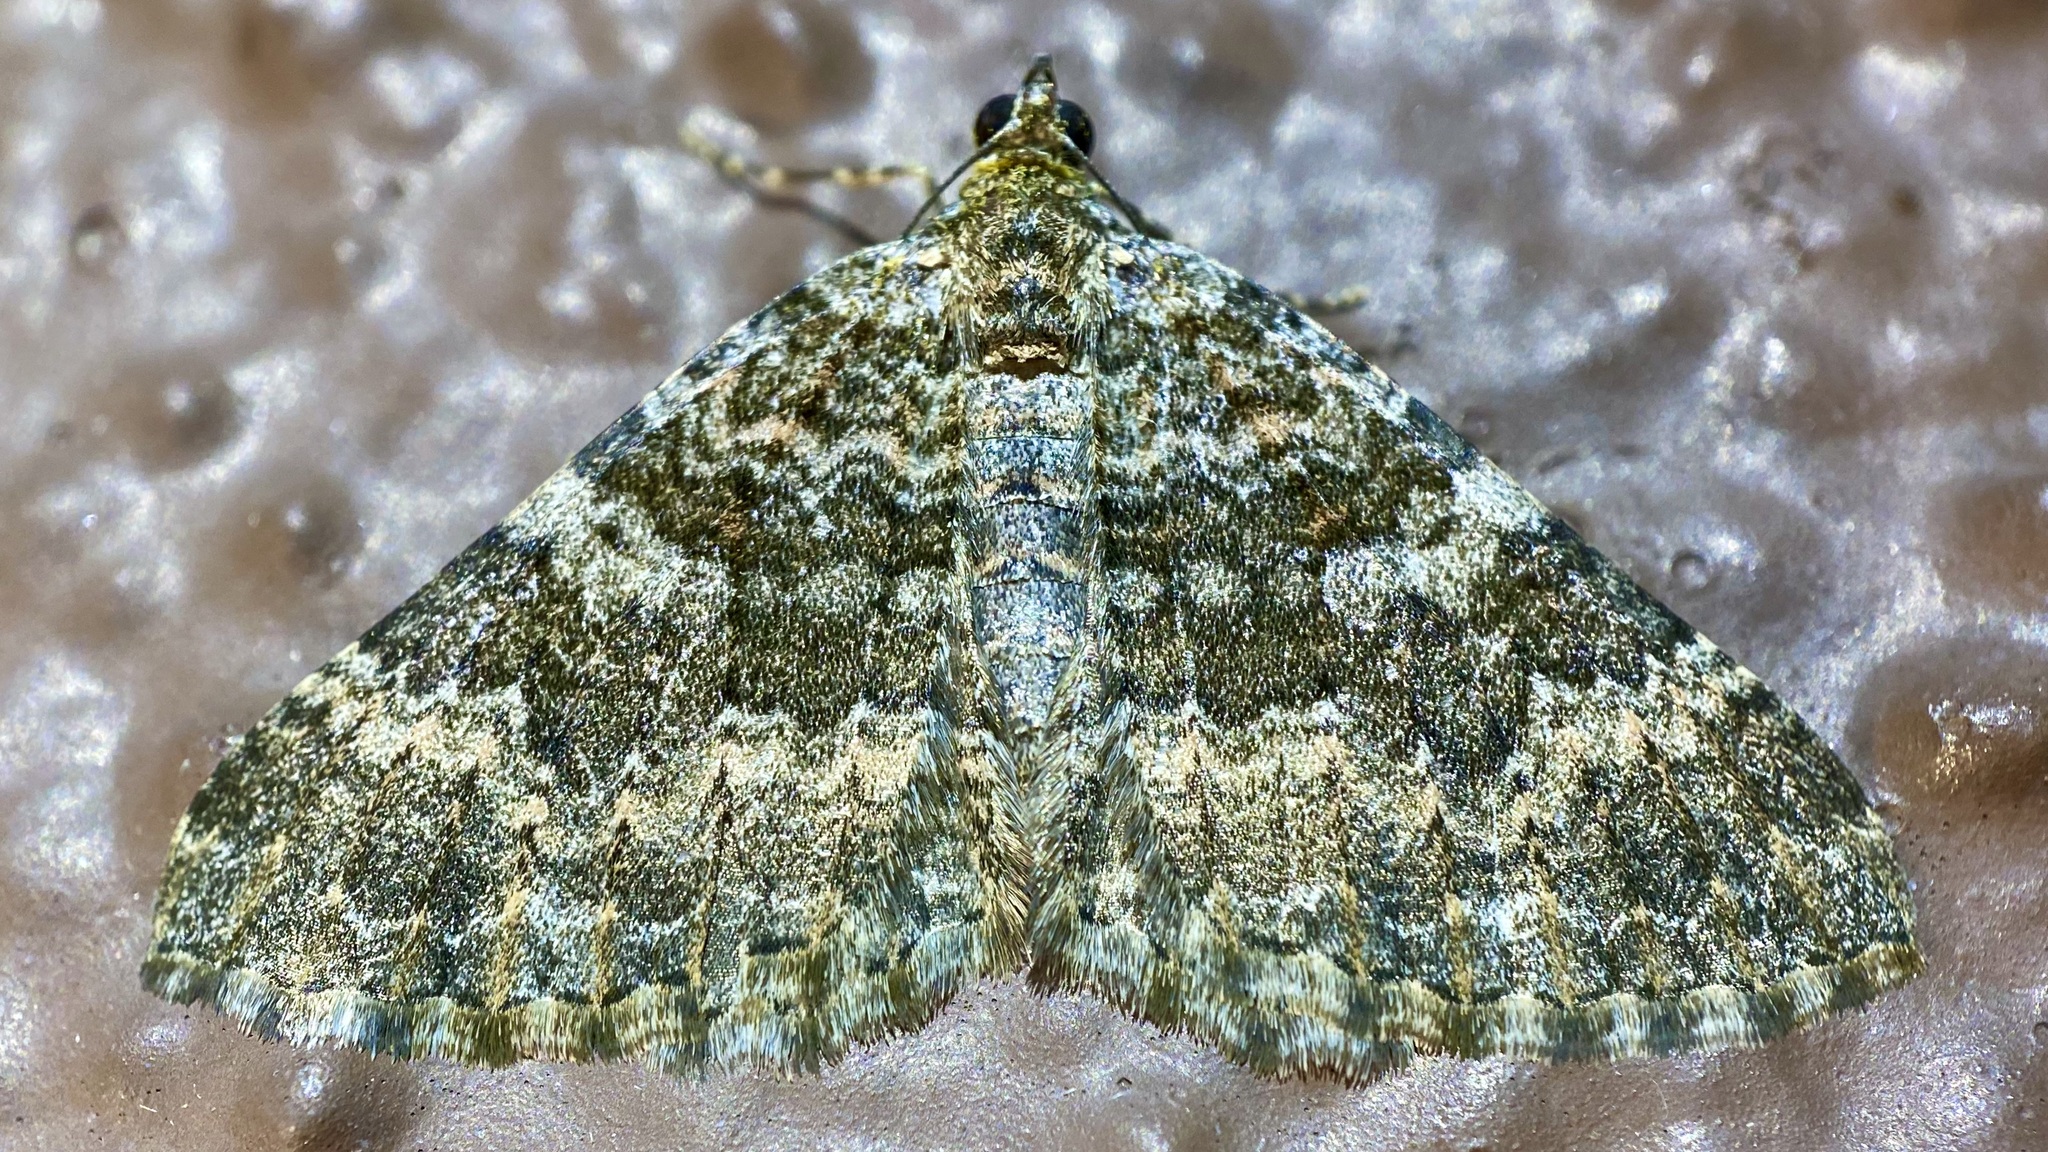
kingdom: Animalia
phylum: Arthropoda
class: Insecta
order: Lepidoptera
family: Geometridae
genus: Archirhoe
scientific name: Archirhoe neomexicana
